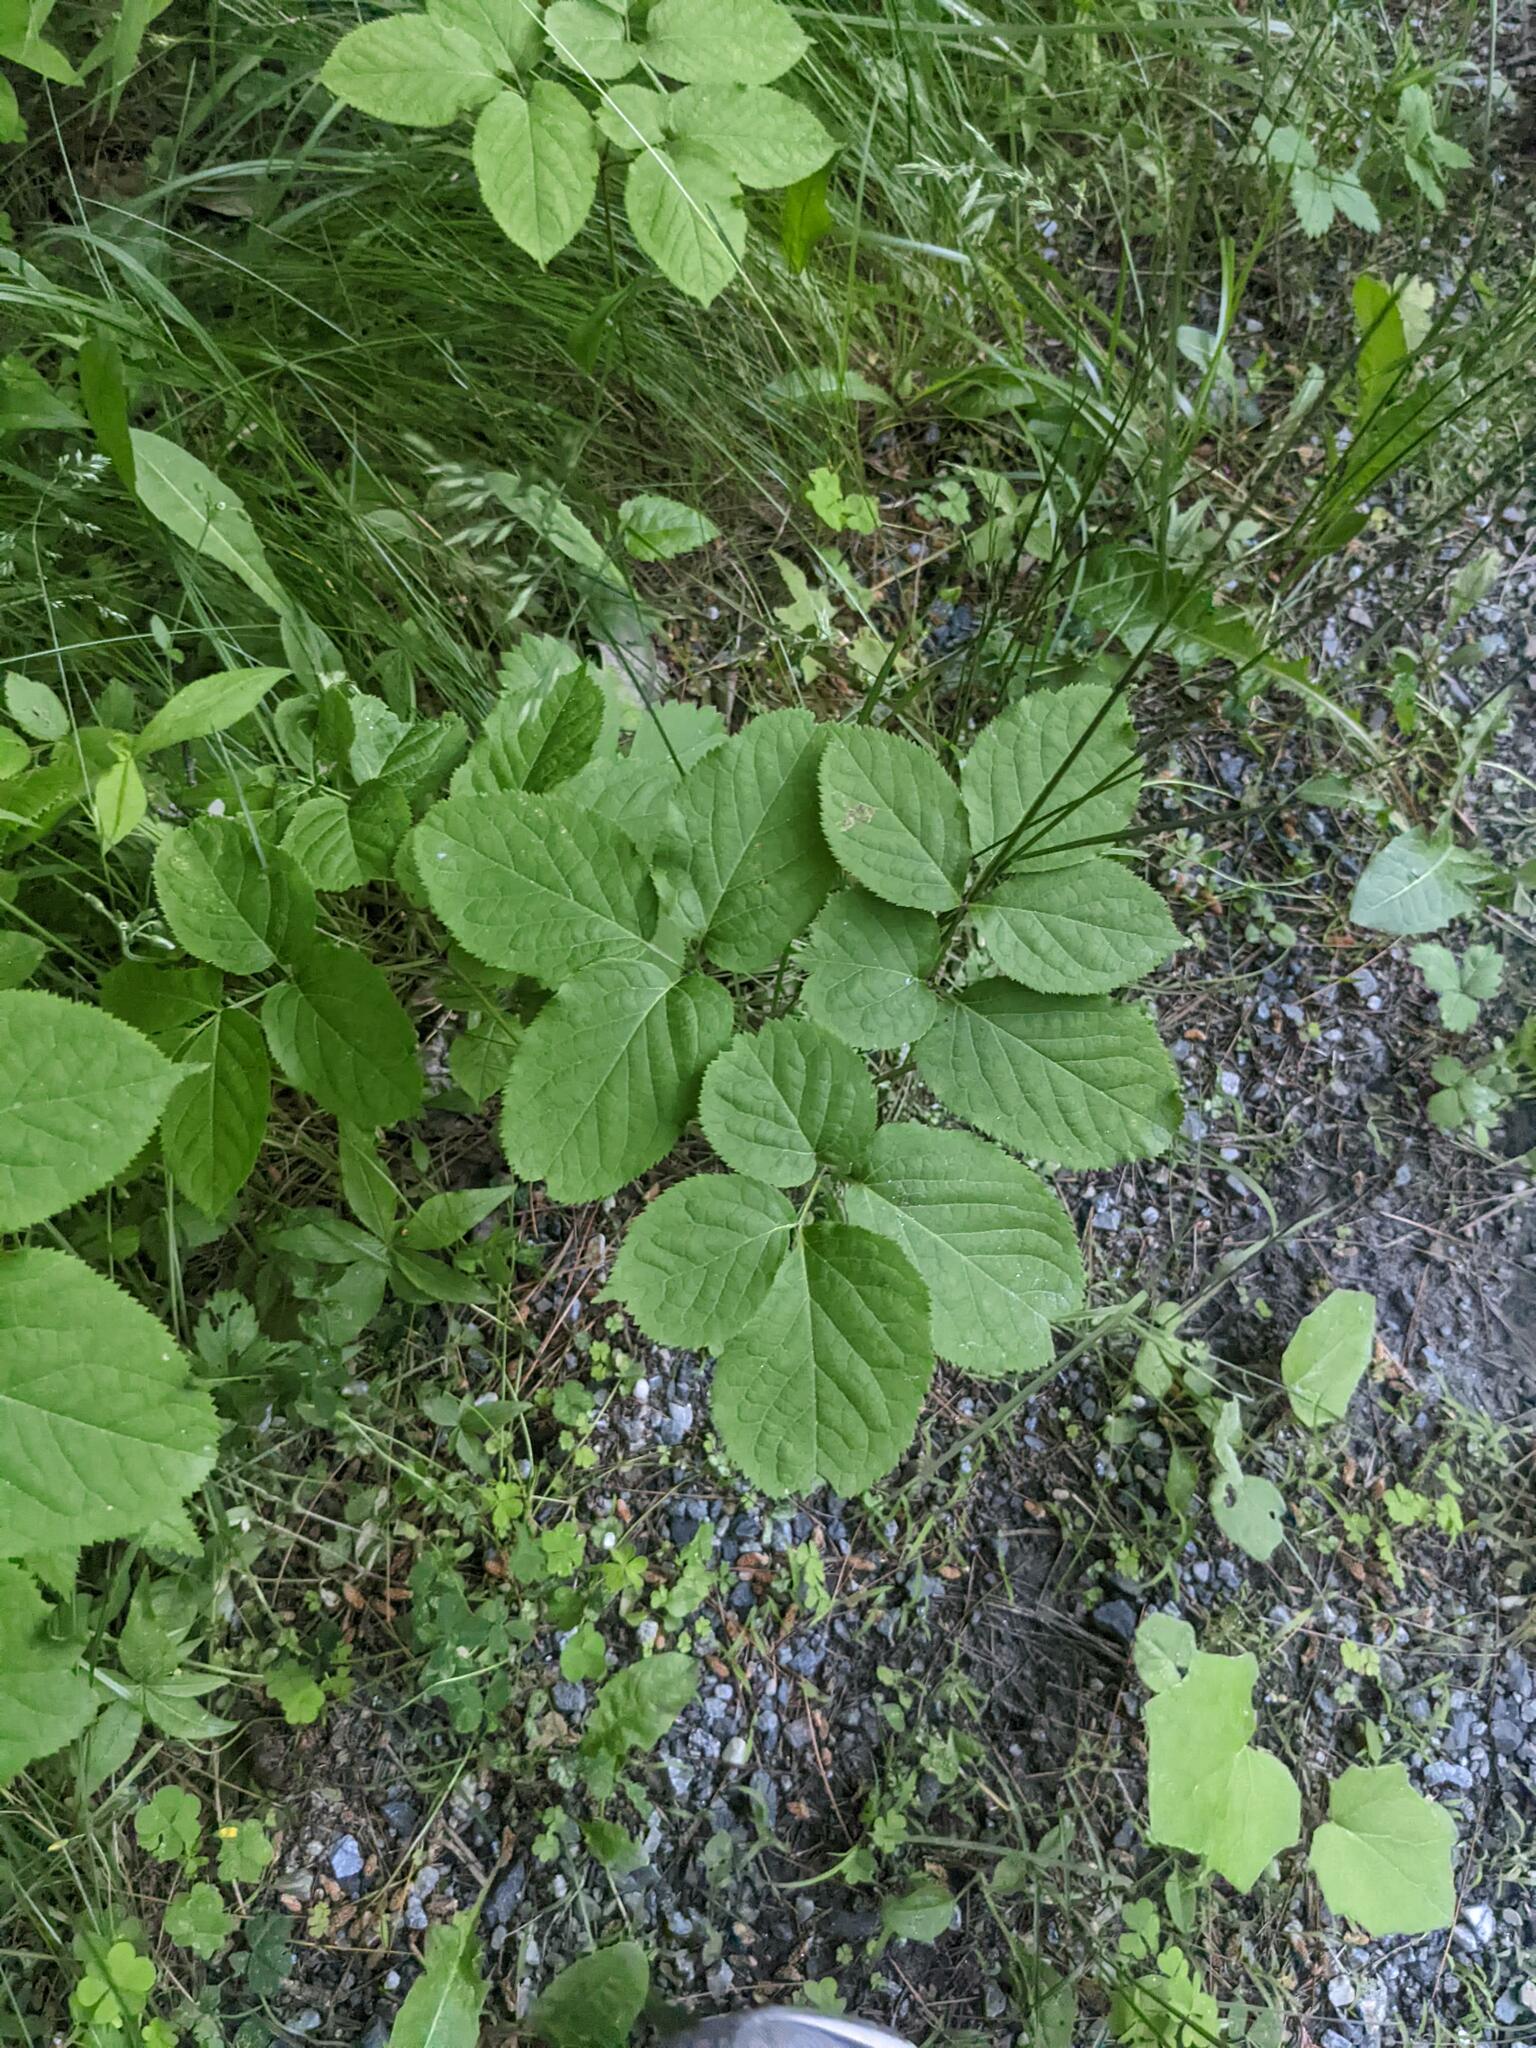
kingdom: Plantae
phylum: Tracheophyta
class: Magnoliopsida
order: Apiales
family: Araliaceae
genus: Aralia
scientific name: Aralia nudicaulis
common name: Wild sarsaparilla
